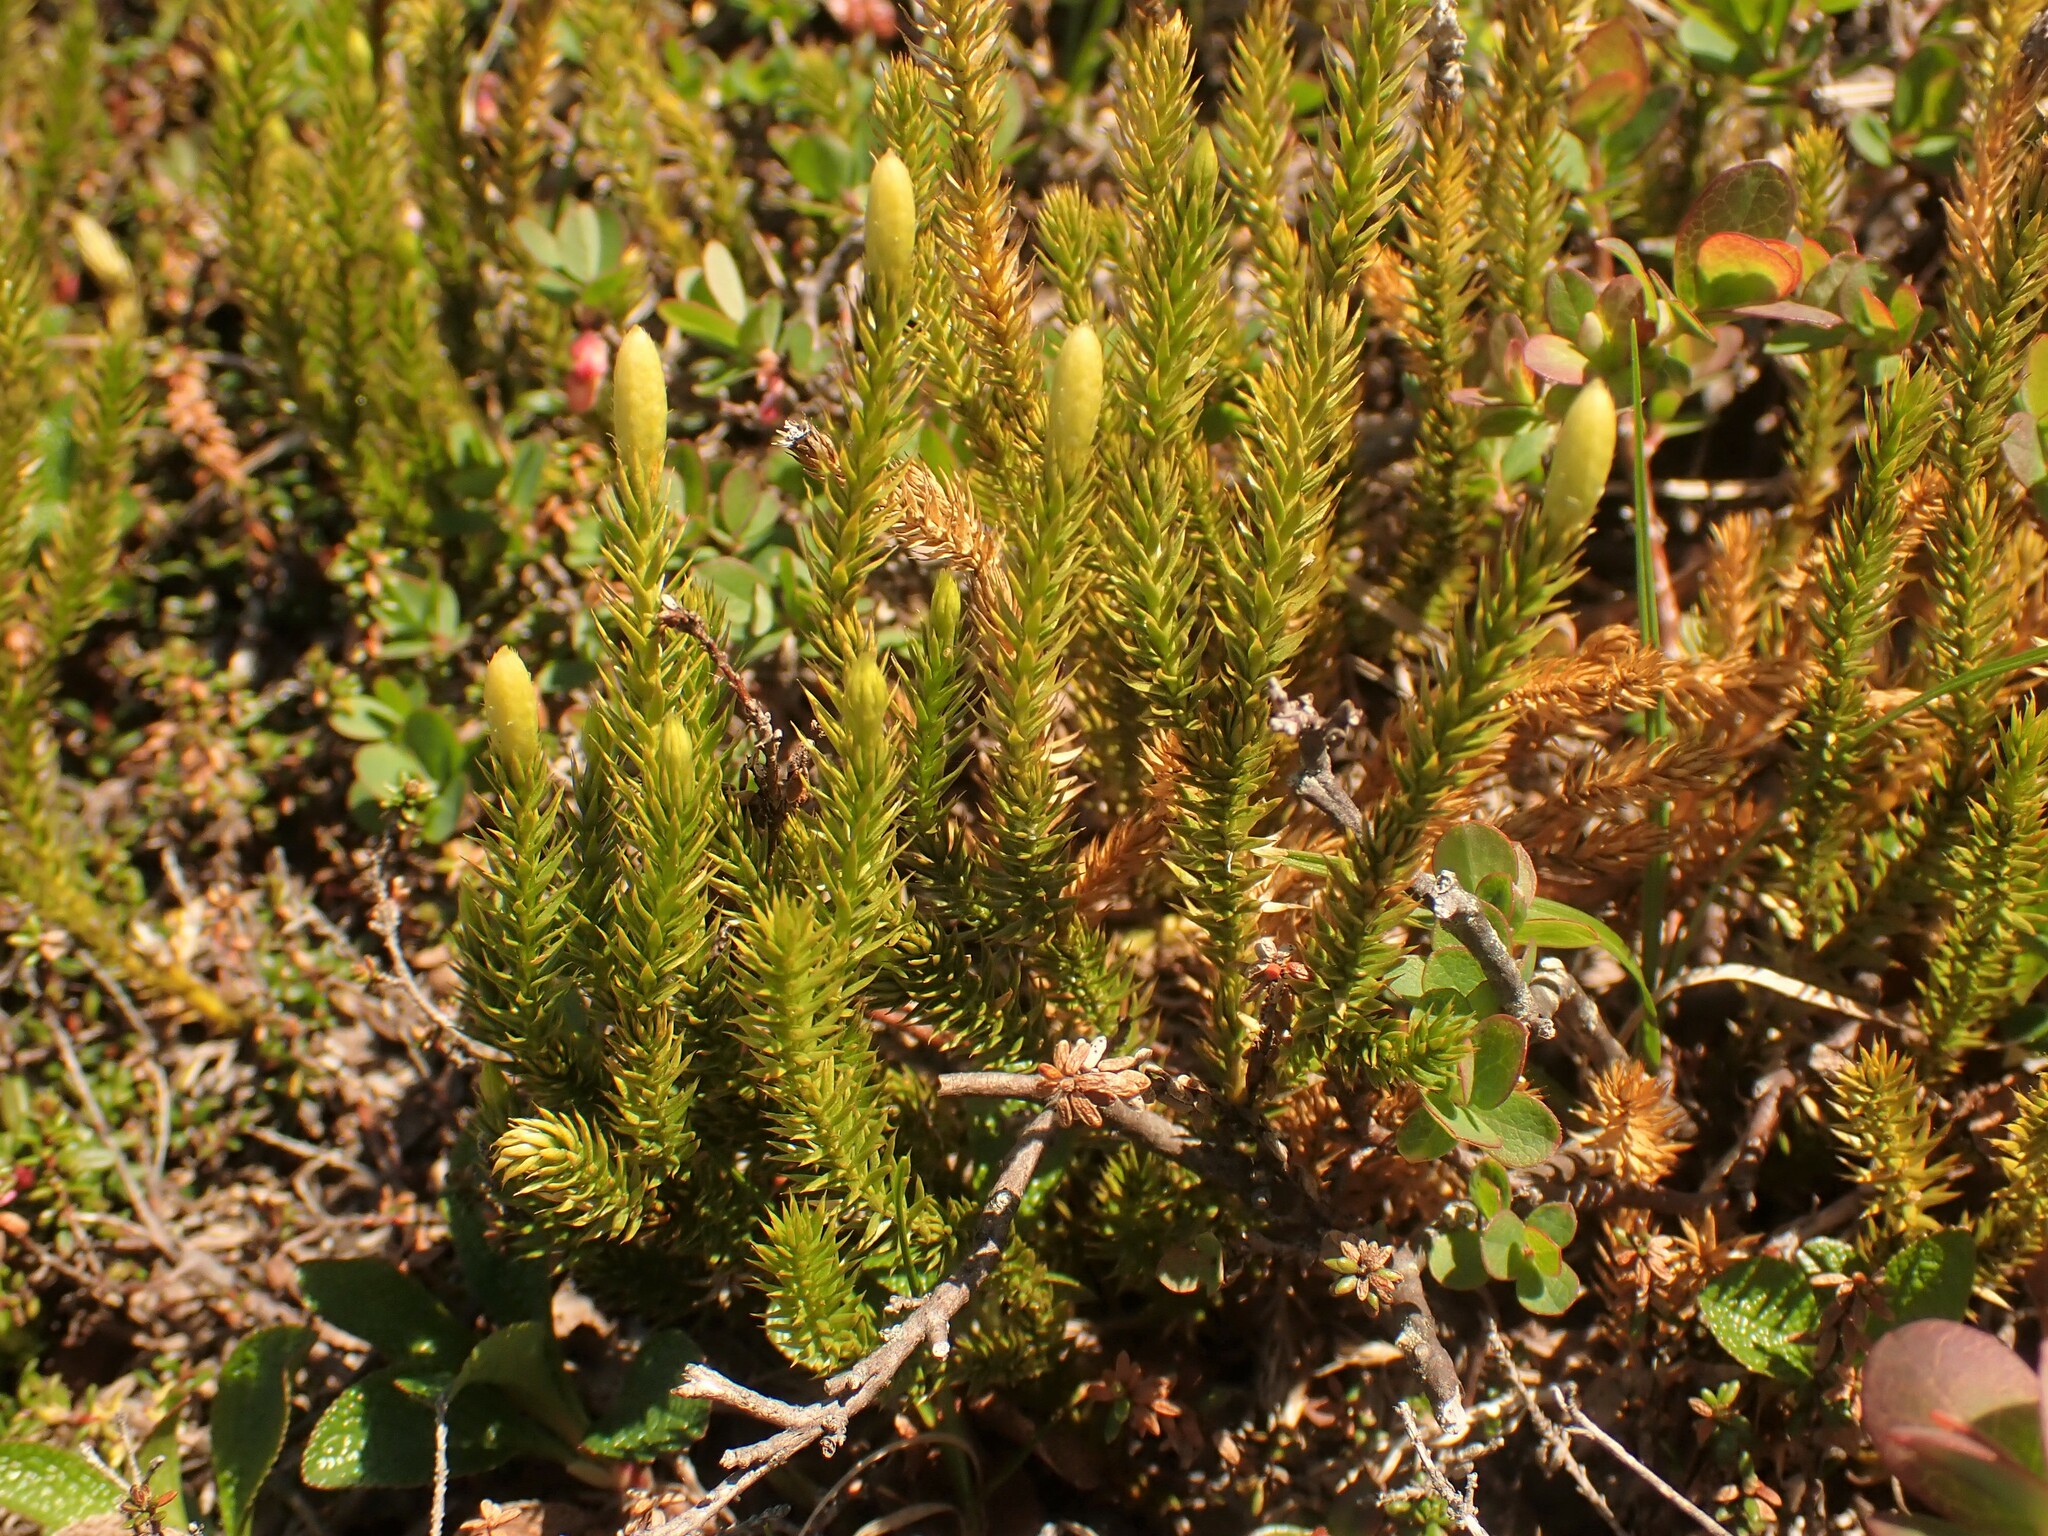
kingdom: Plantae
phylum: Tracheophyta
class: Lycopodiopsida
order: Lycopodiales
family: Lycopodiaceae
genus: Spinulum
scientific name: Spinulum annotinum
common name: Interrupted club-moss
